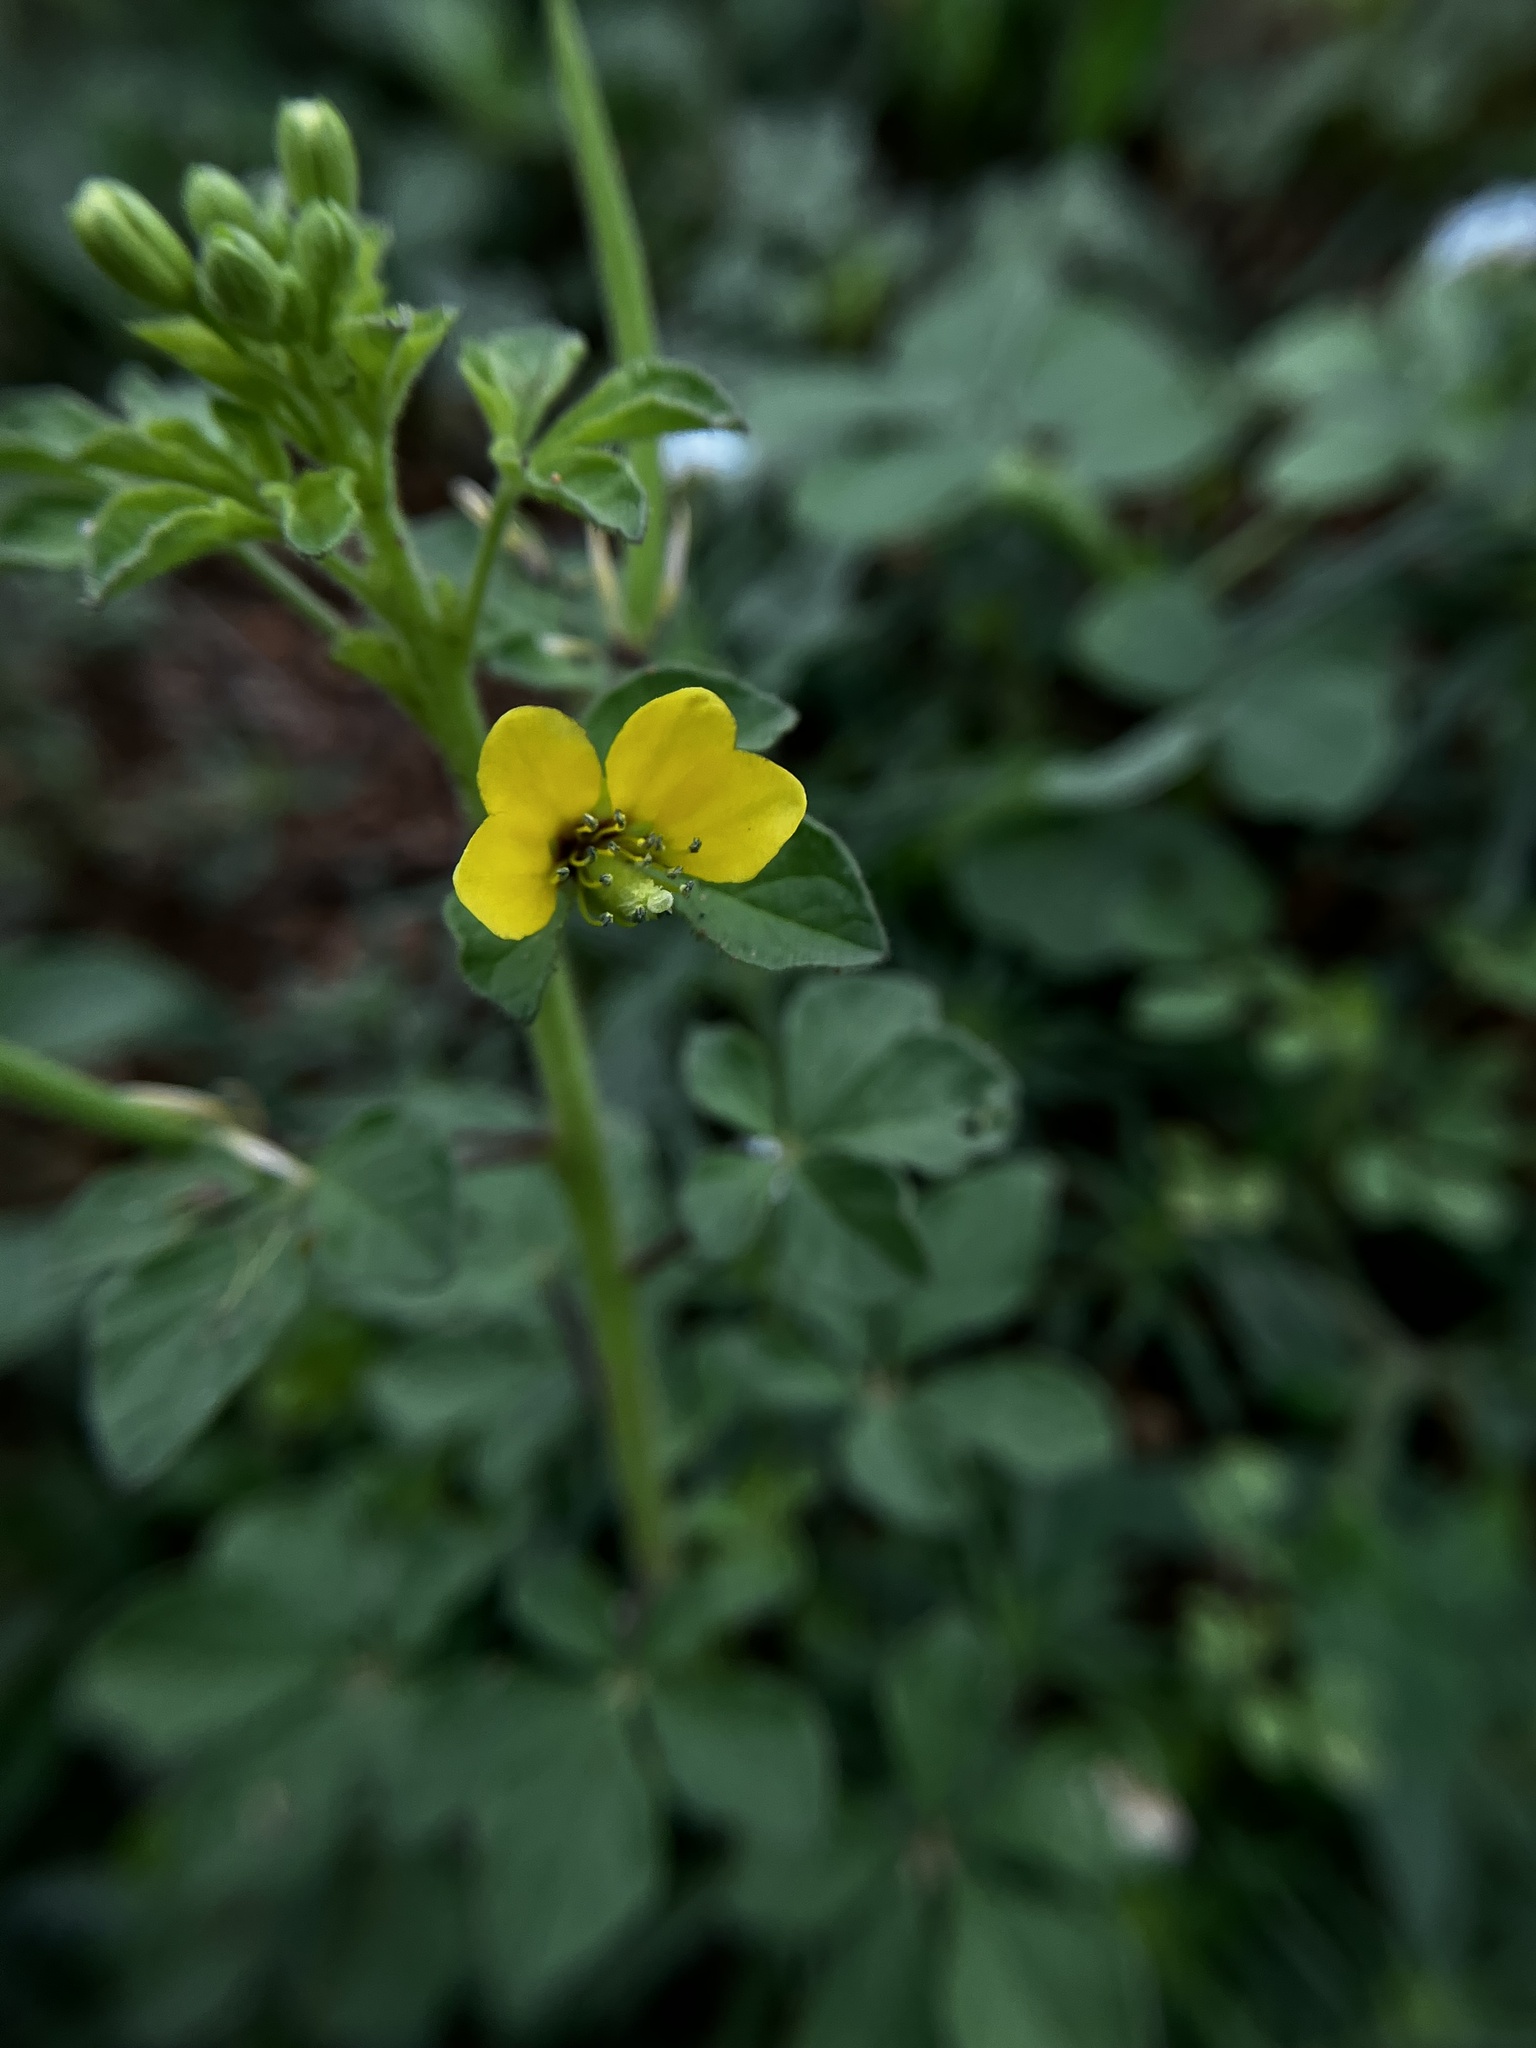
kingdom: Plantae
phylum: Tracheophyta
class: Magnoliopsida
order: Brassicales
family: Cleomaceae
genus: Arivela
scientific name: Arivela viscosa
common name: Asian spiderflower
